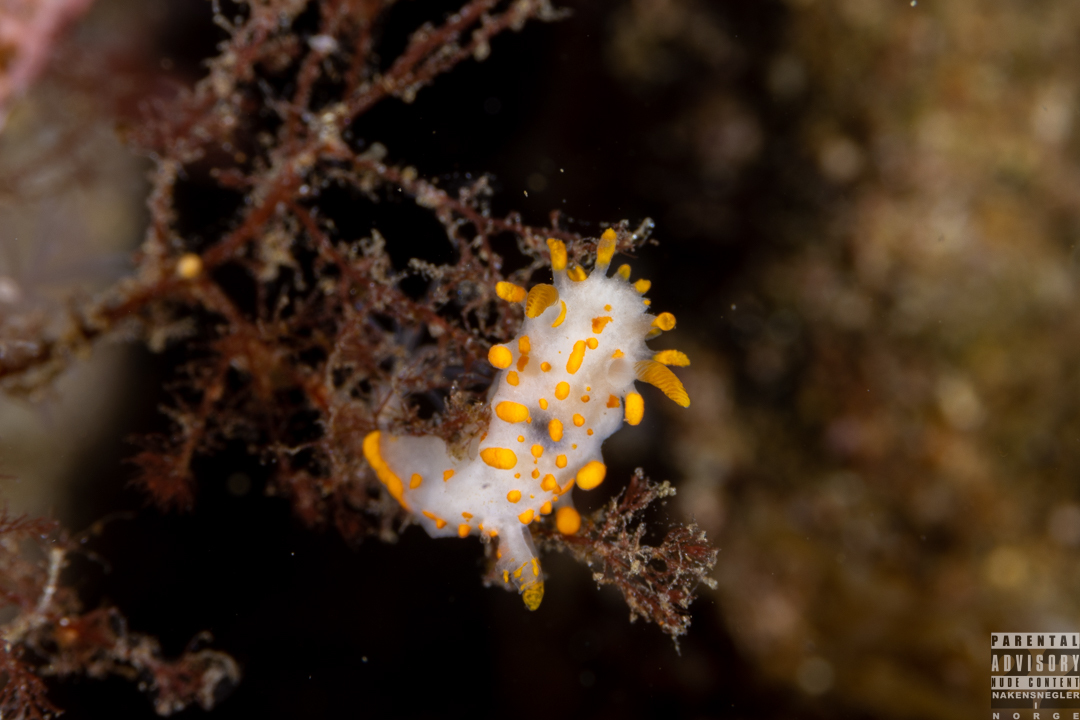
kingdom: Animalia
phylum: Mollusca
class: Gastropoda
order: Nudibranchia
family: Polyceridae
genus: Limacia
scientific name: Limacia clavigera
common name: Orange-clubbed sea slug
